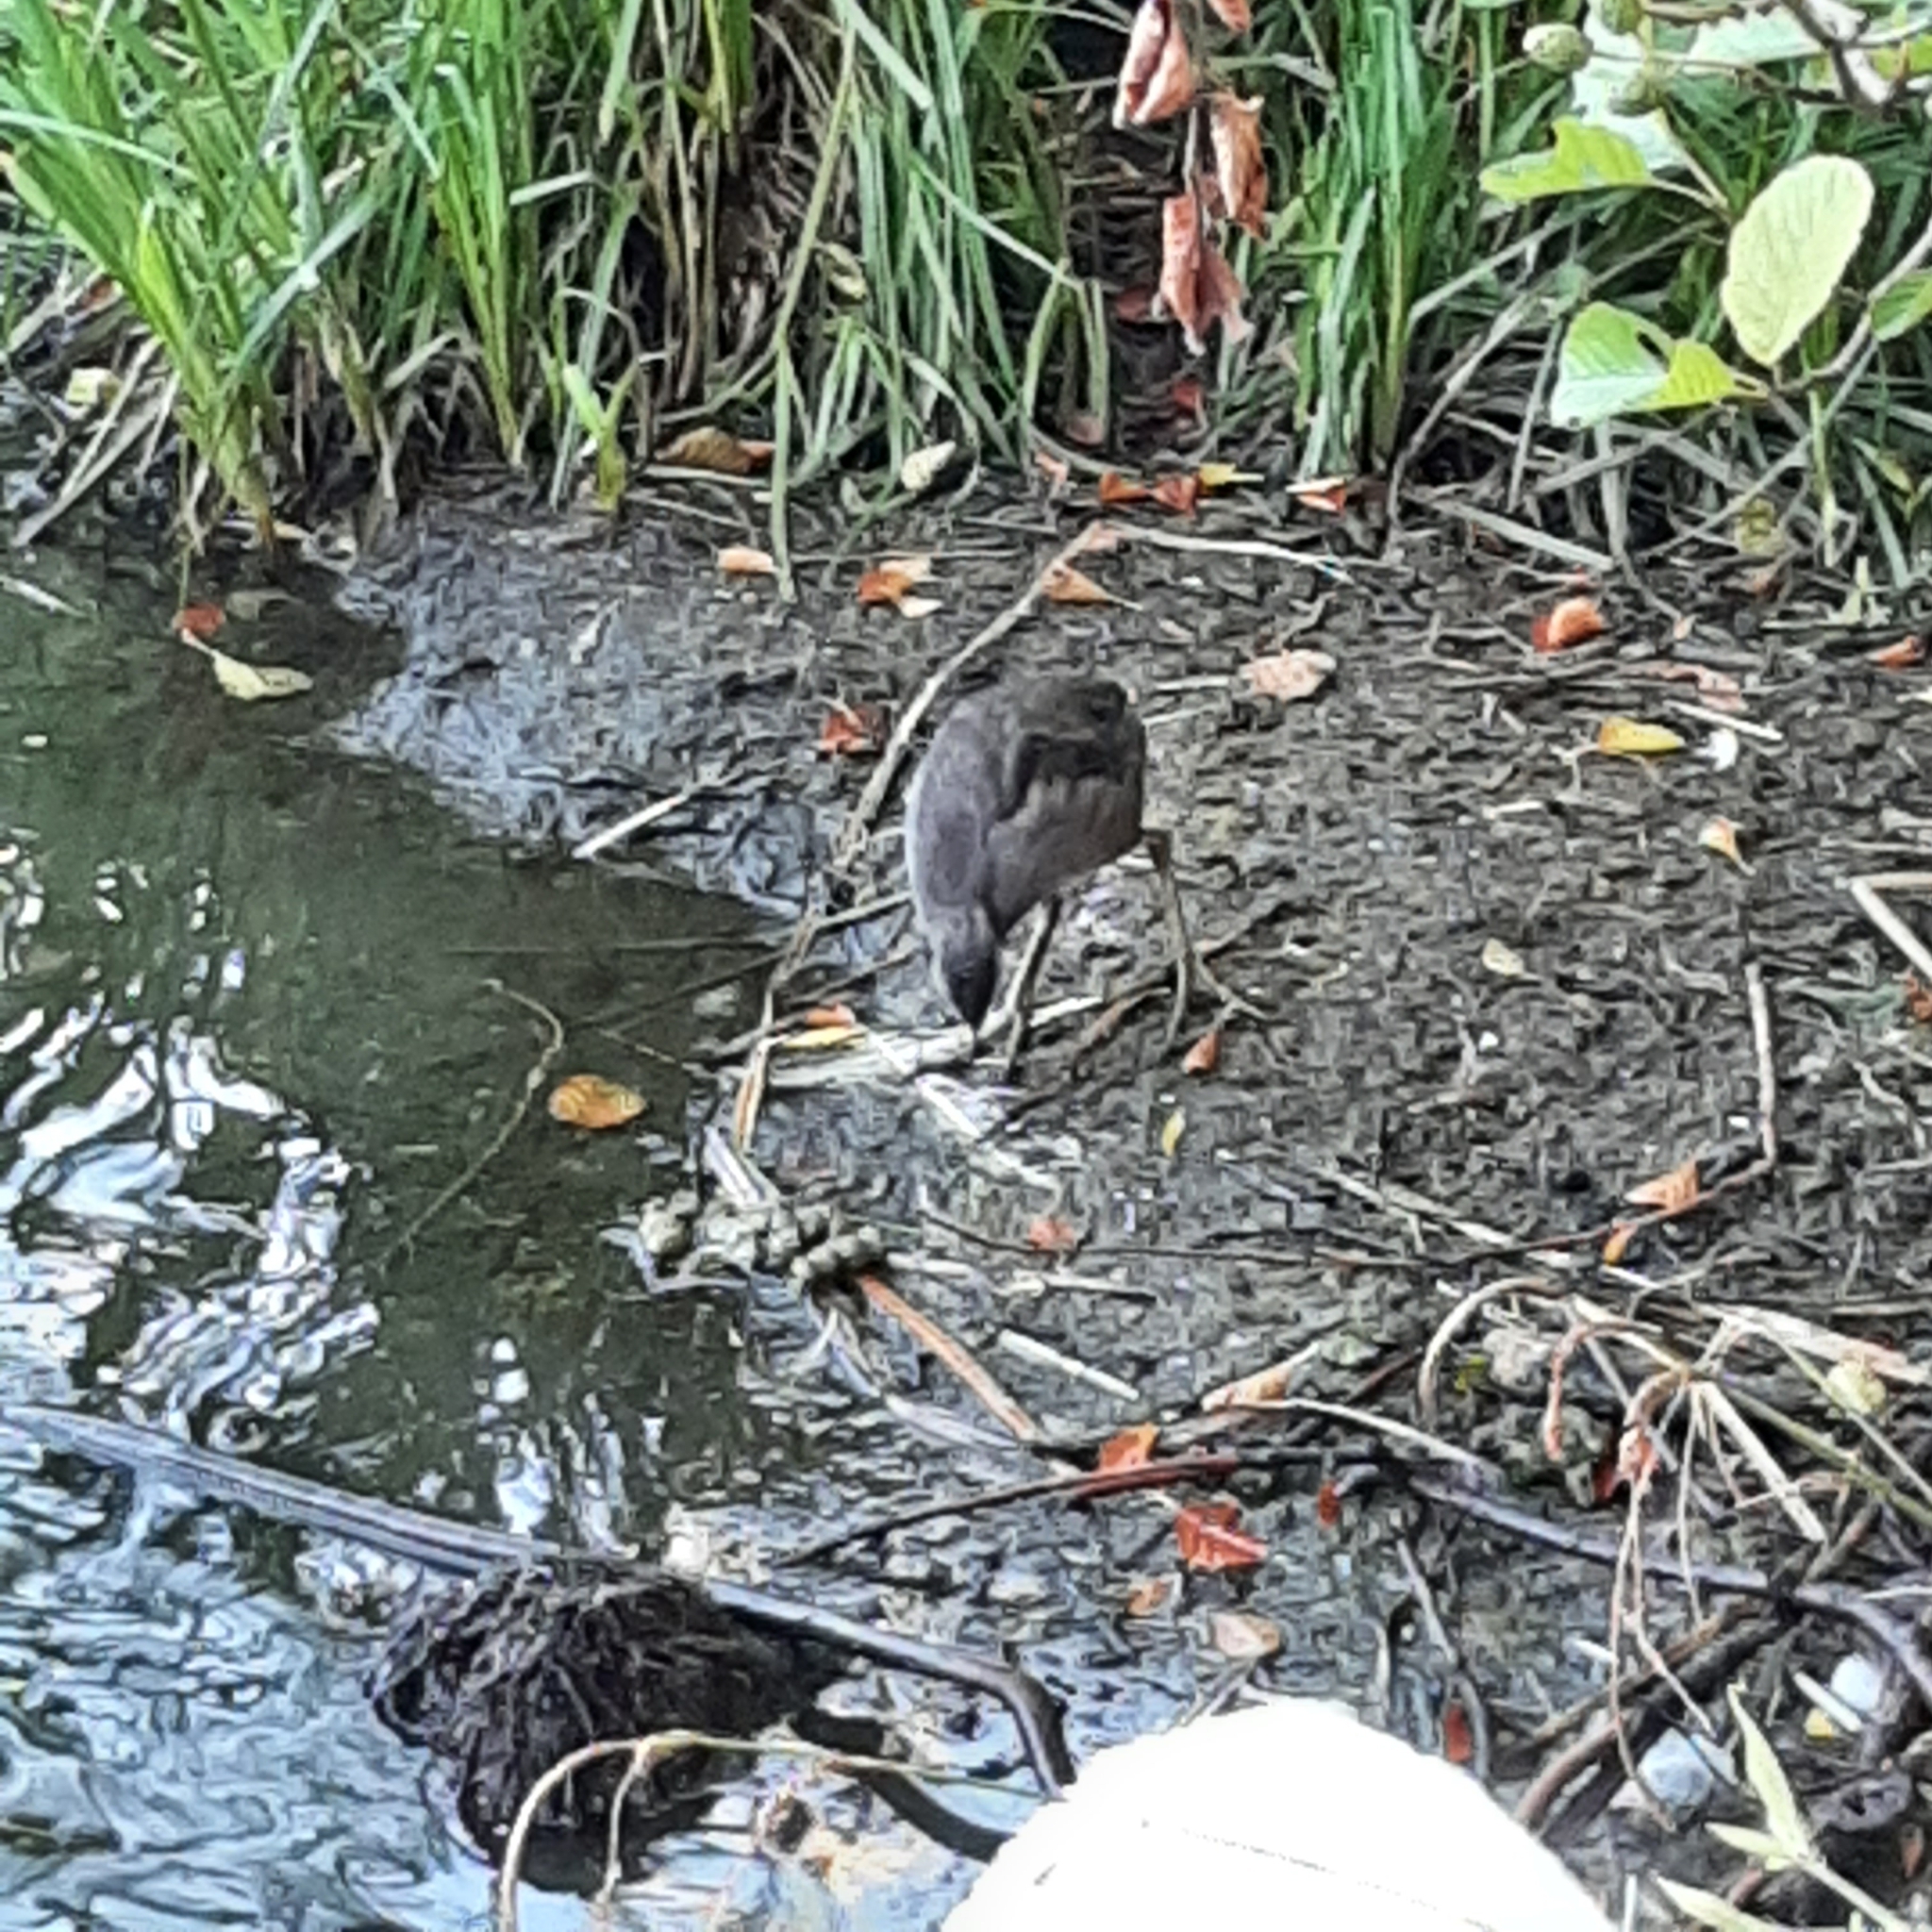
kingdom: Animalia
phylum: Chordata
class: Aves
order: Gruiformes
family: Rallidae
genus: Gallinula
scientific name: Gallinula chloropus
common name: Common moorhen
